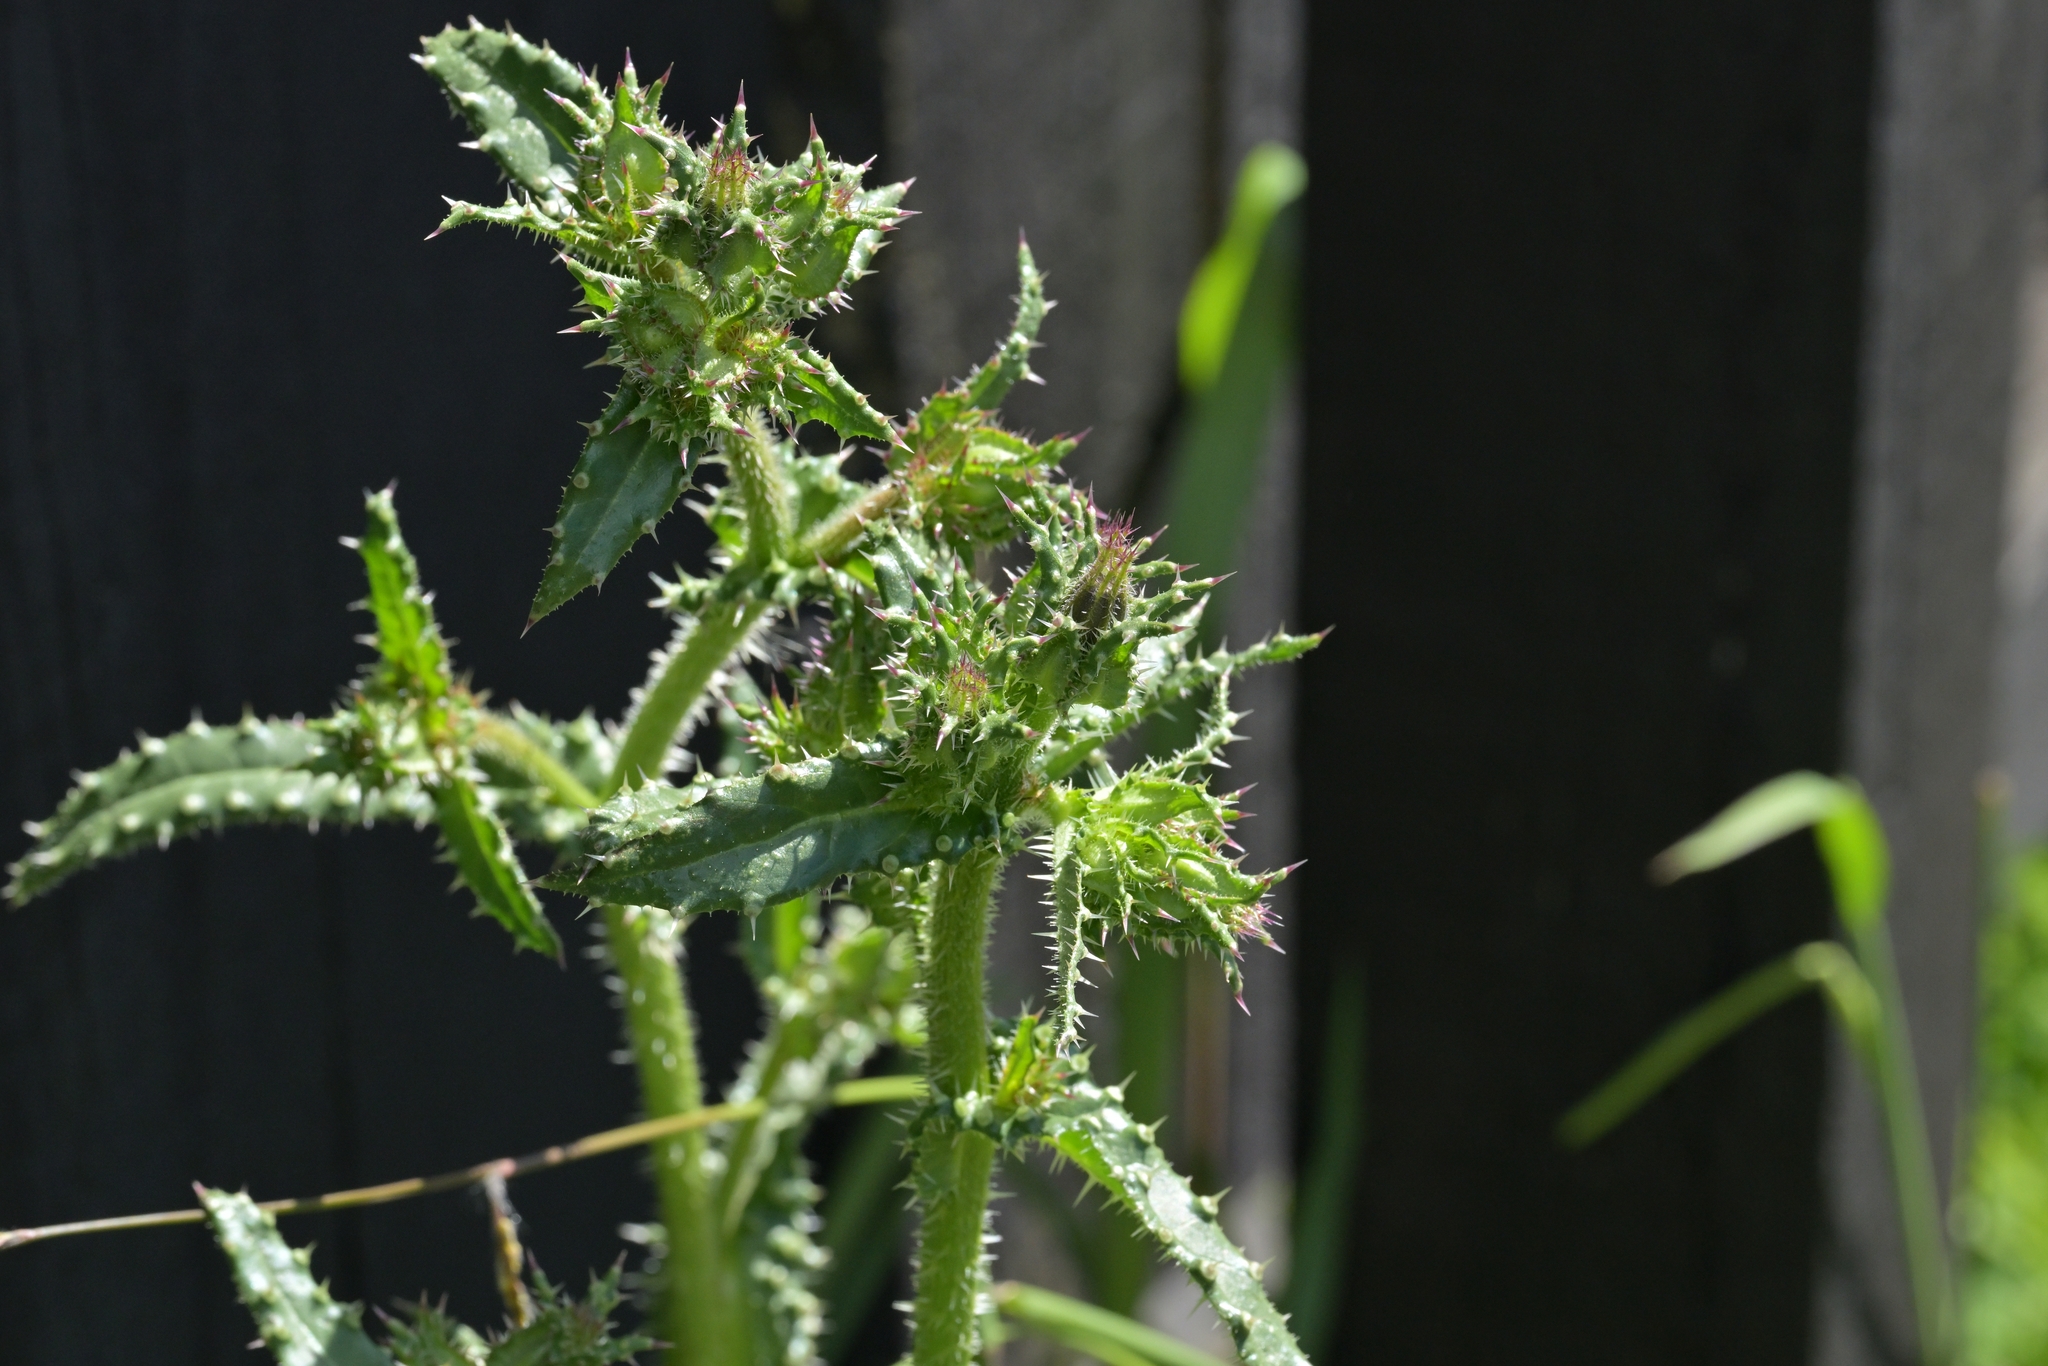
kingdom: Plantae
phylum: Tracheophyta
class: Magnoliopsida
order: Asterales
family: Asteraceae
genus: Helminthotheca
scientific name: Helminthotheca echioides
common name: Ox-tongue
